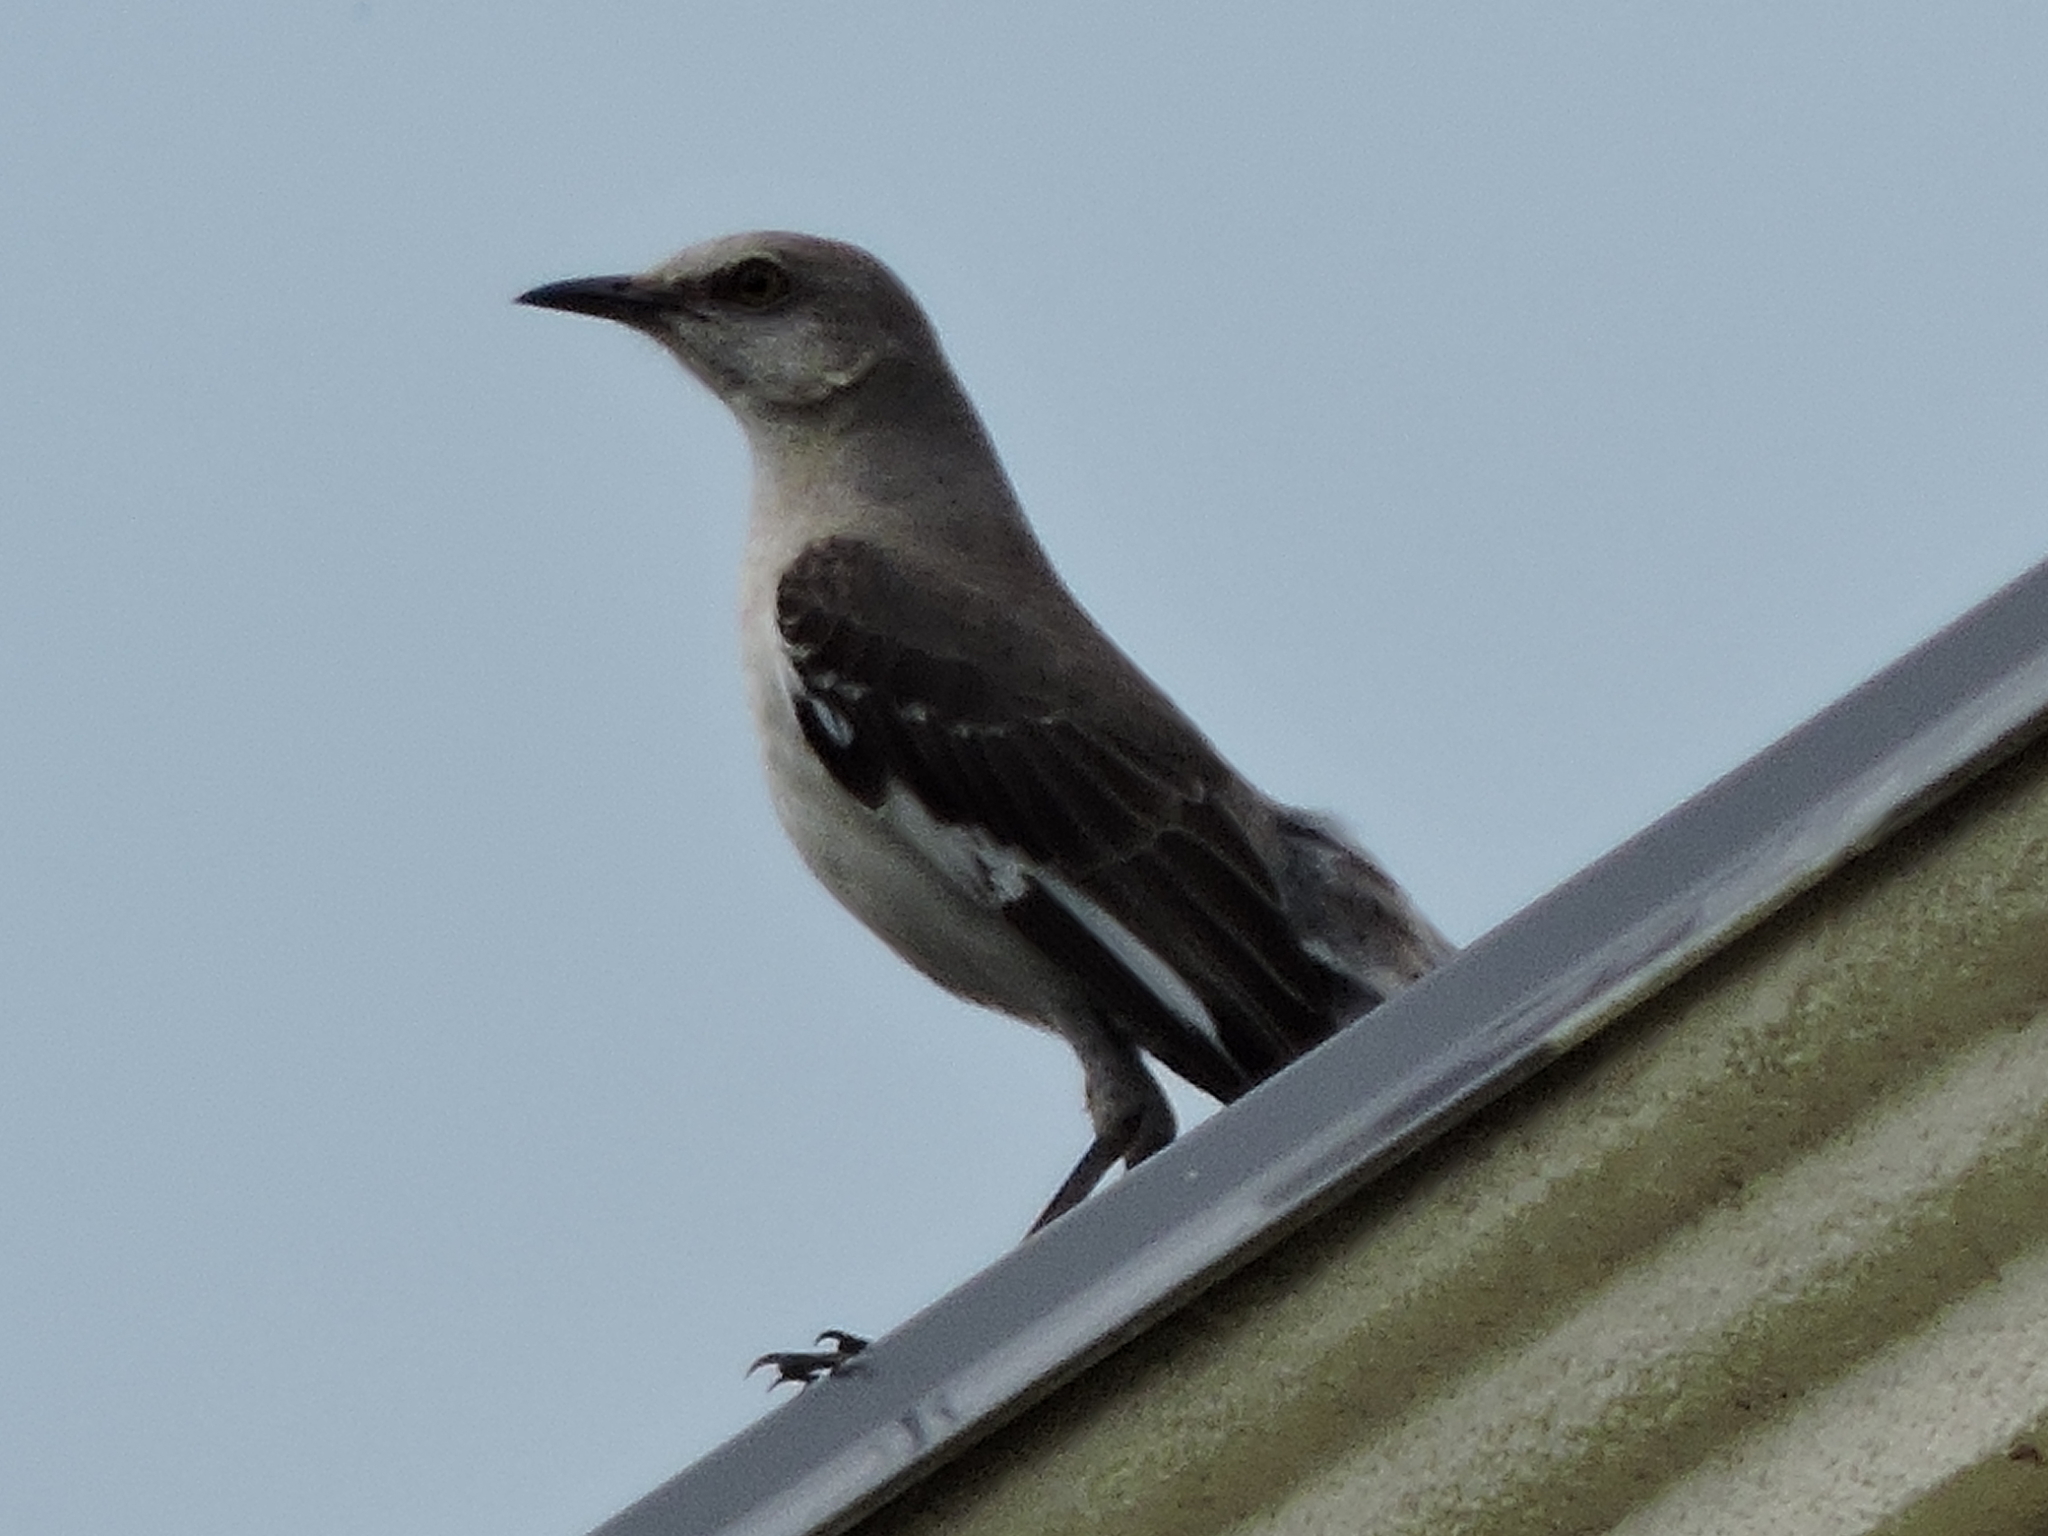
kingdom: Animalia
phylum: Chordata
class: Aves
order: Passeriformes
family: Mimidae
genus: Mimus
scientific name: Mimus polyglottos
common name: Northern mockingbird
